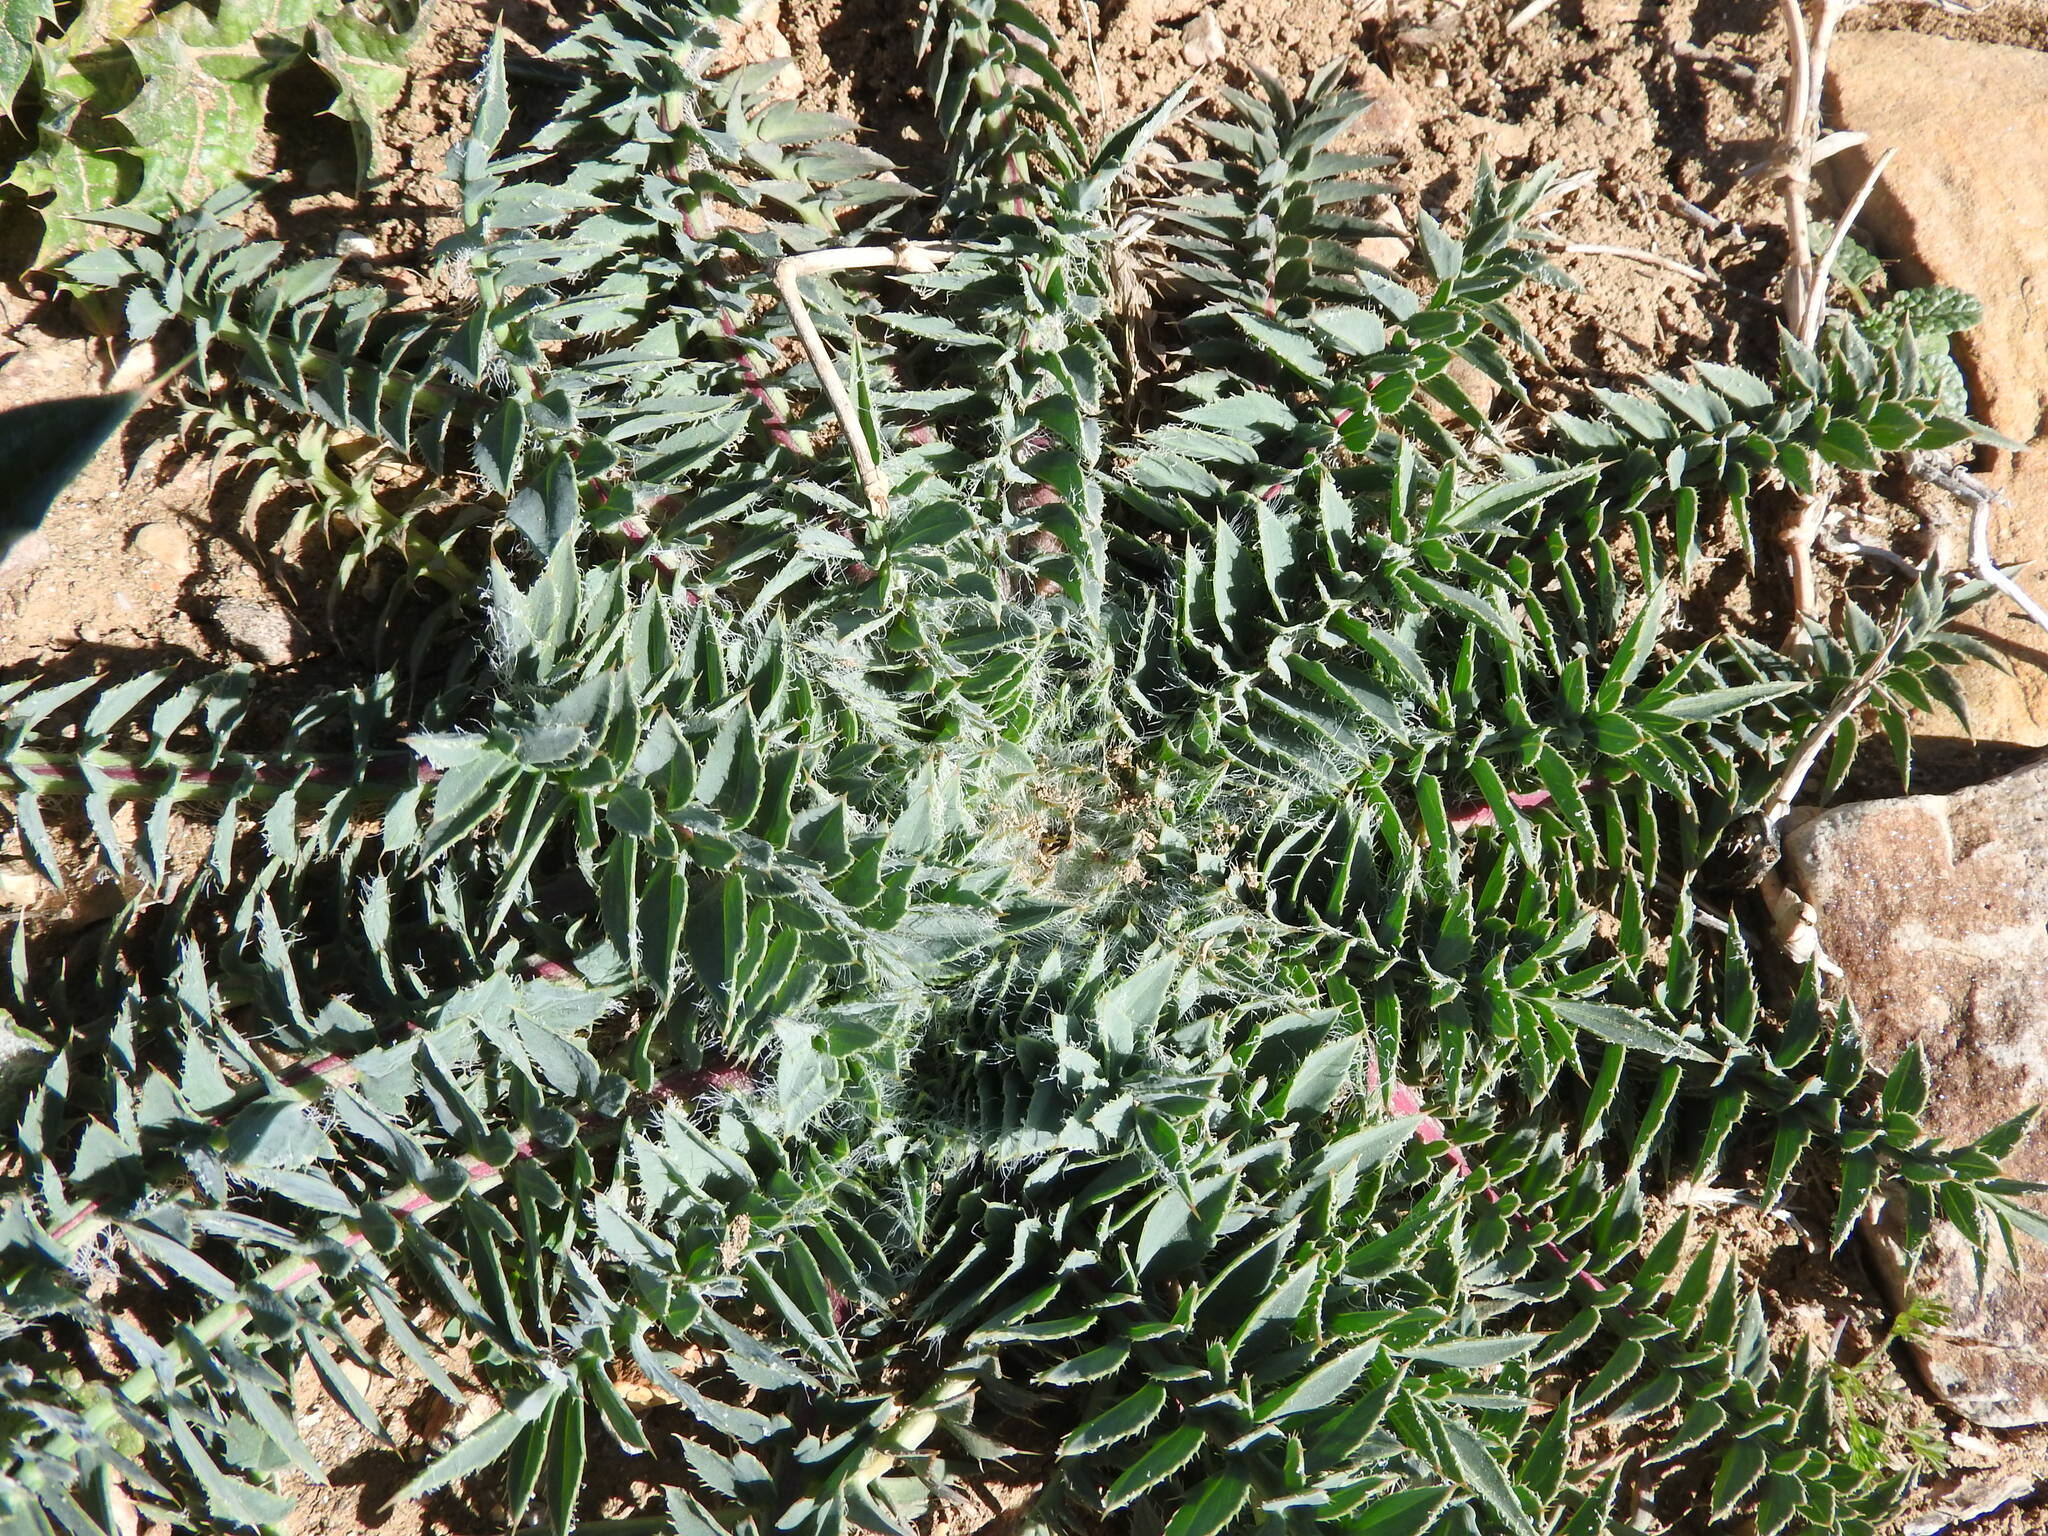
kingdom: Plantae
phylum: Tracheophyta
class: Magnoliopsida
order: Asterales
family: Asteraceae
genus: Carduncellus
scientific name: Carduncellus
